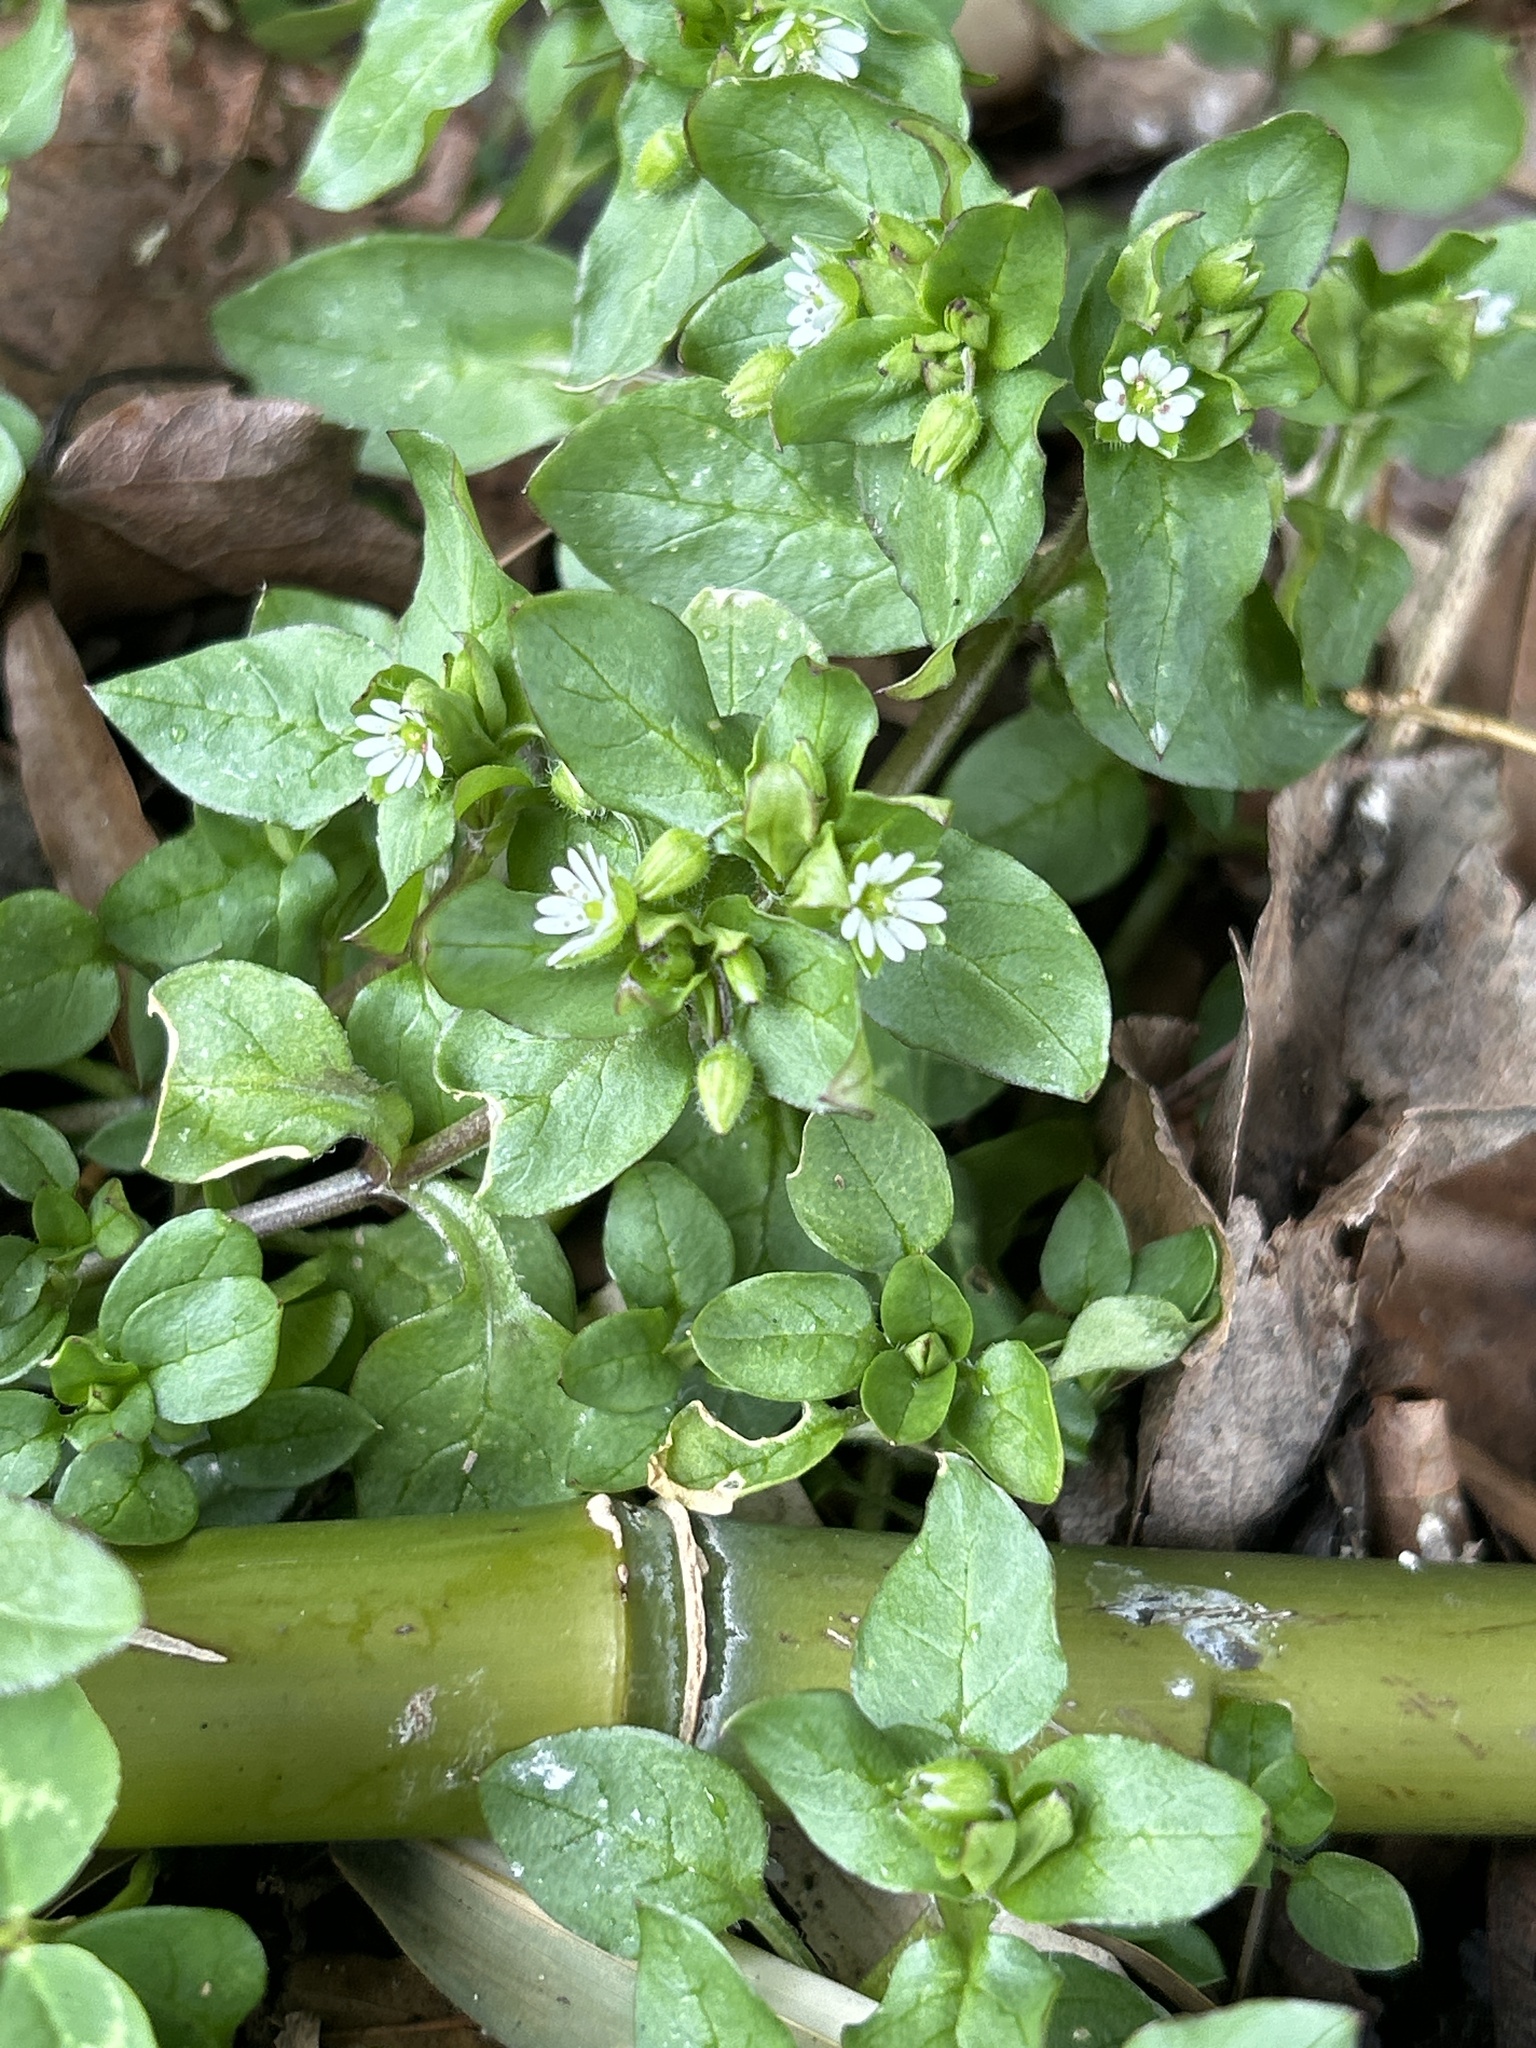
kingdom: Plantae
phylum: Tracheophyta
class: Magnoliopsida
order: Caryophyllales
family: Caryophyllaceae
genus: Stellaria
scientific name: Stellaria media
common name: Common chickweed
